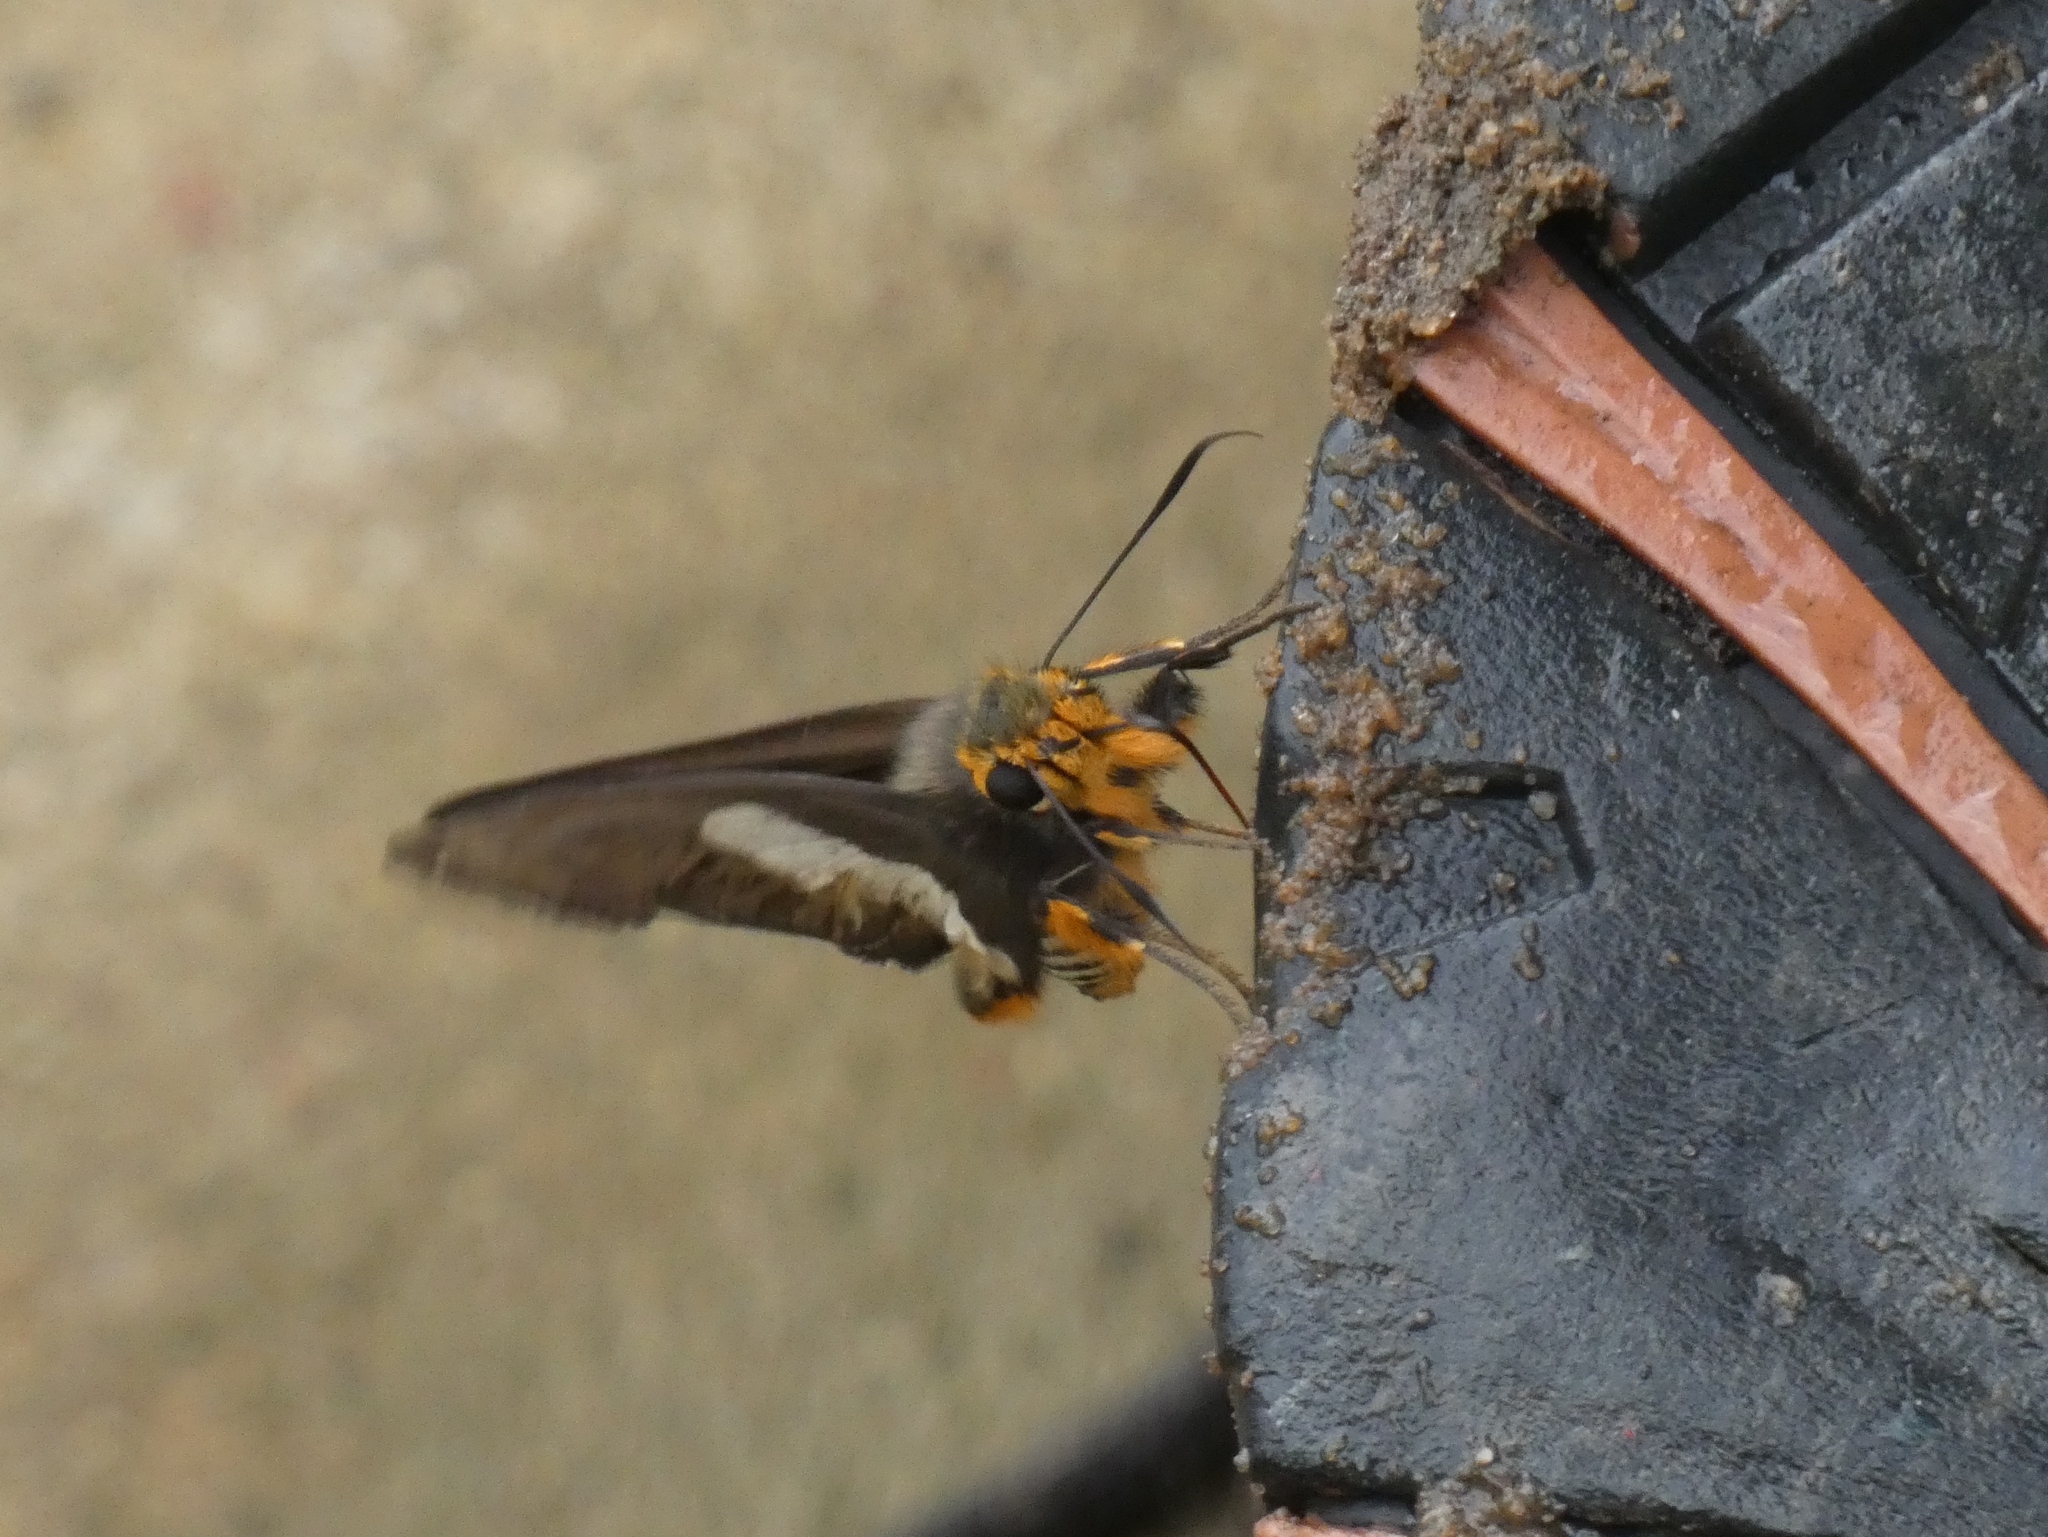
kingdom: Animalia
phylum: Arthropoda
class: Insecta
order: Lepidoptera
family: Hesperiidae
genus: Coeliades
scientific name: Coeliades forestan
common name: Striped policeman
